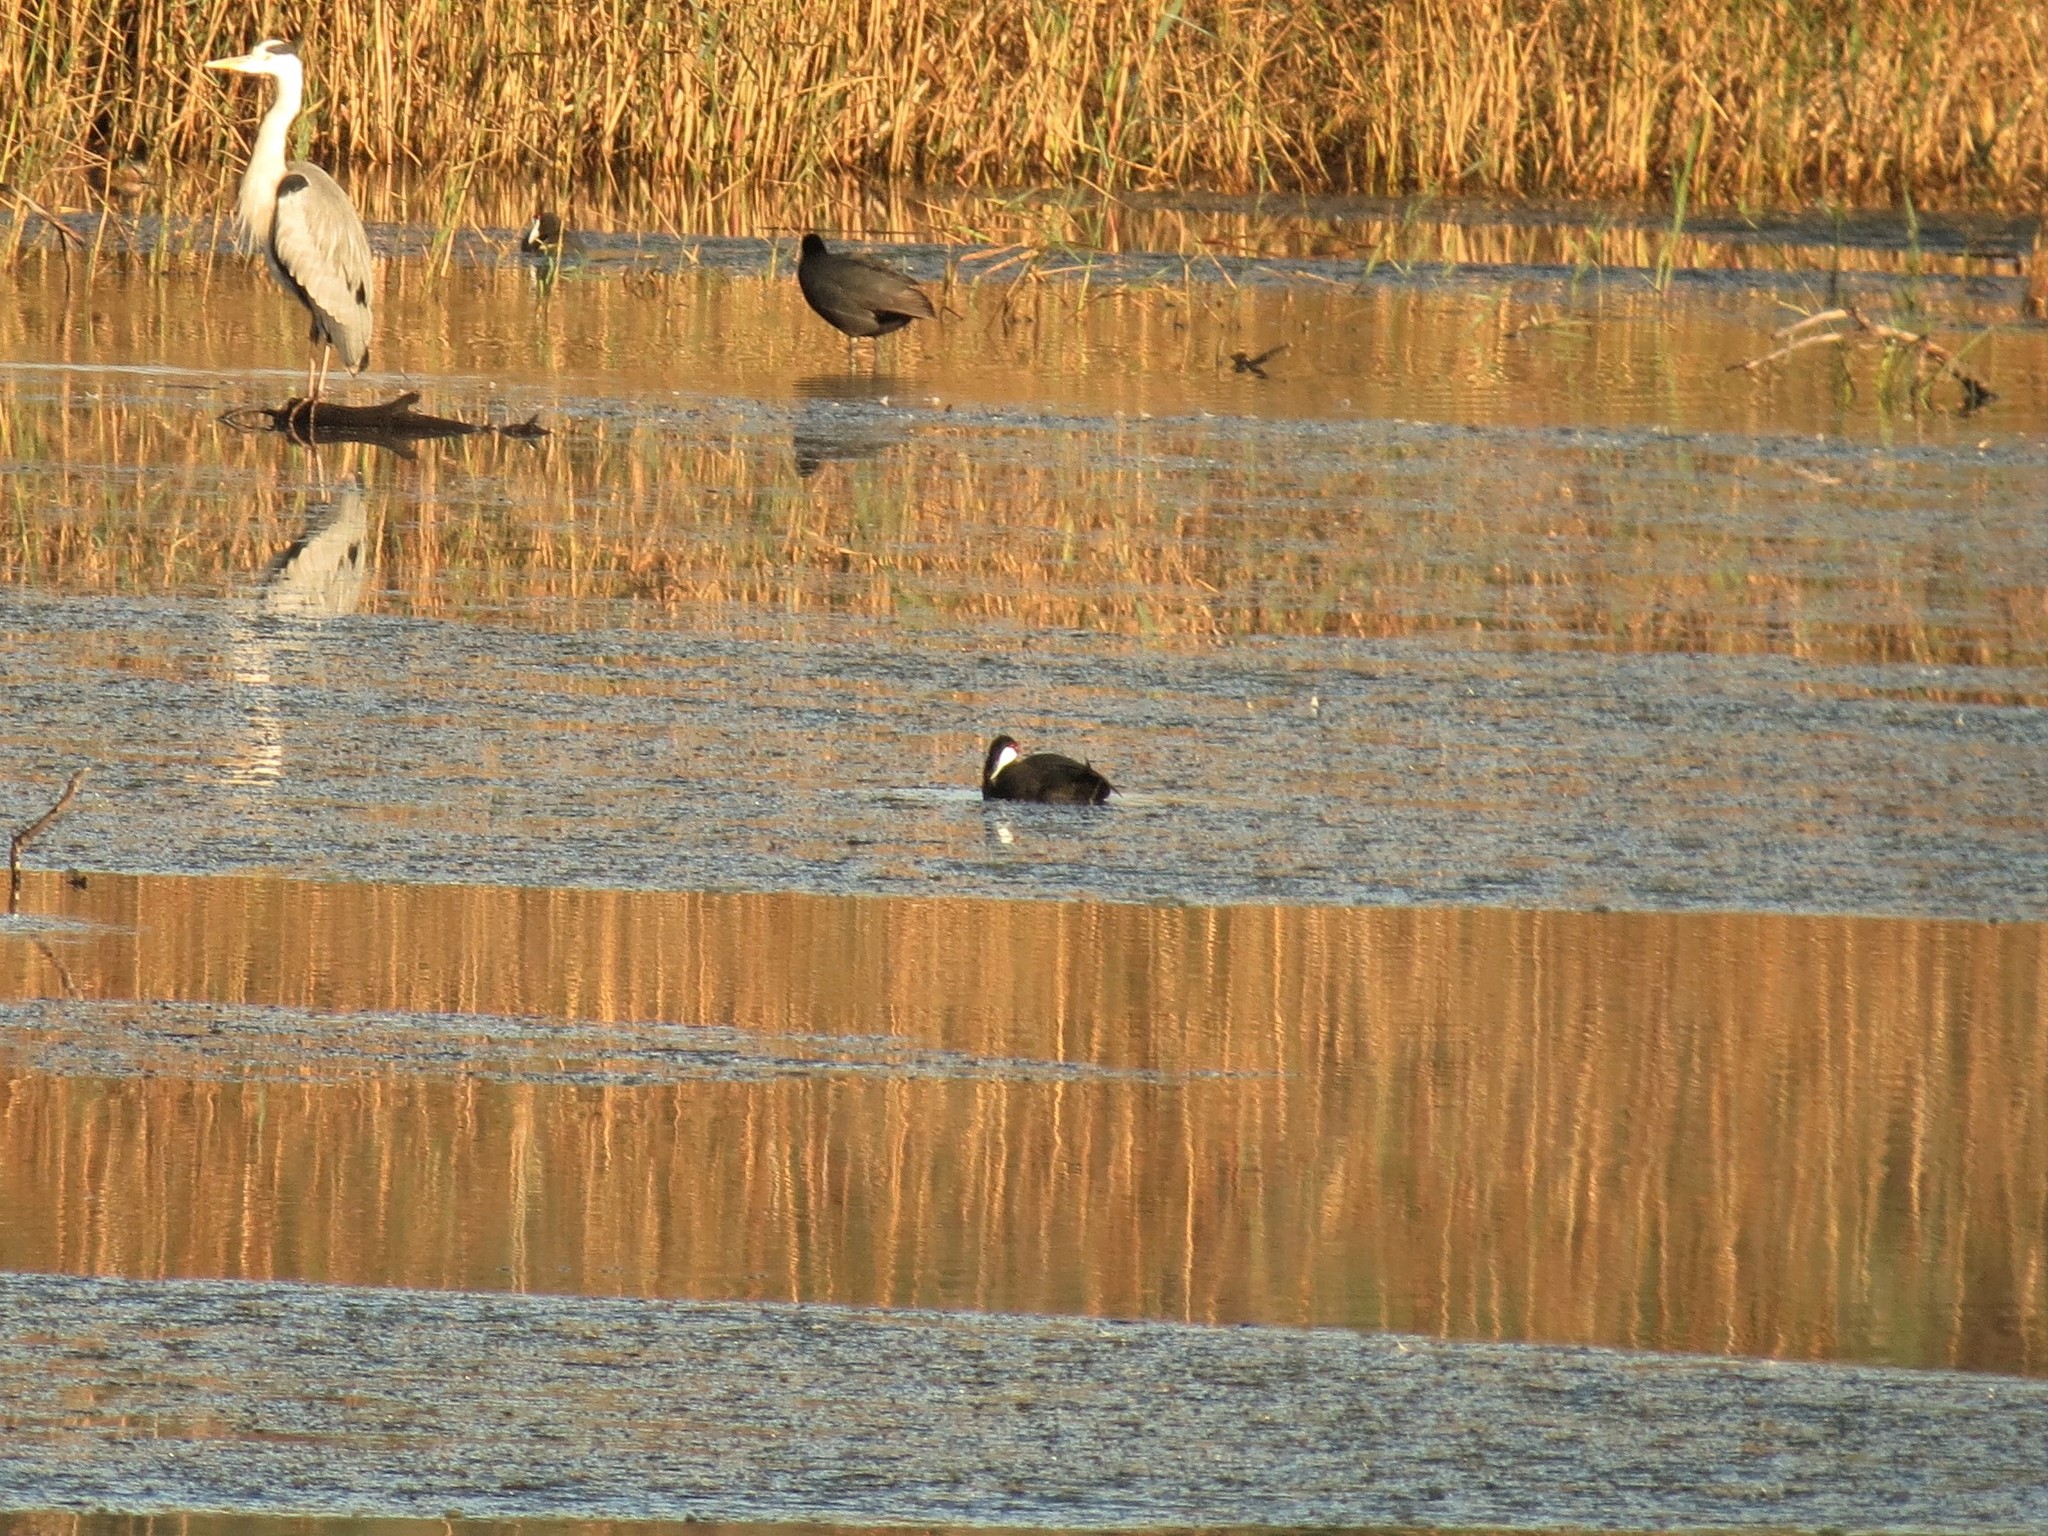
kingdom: Animalia
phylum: Chordata
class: Aves
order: Gruiformes
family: Rallidae
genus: Fulica
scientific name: Fulica cristata
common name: Red-knobbed coot
